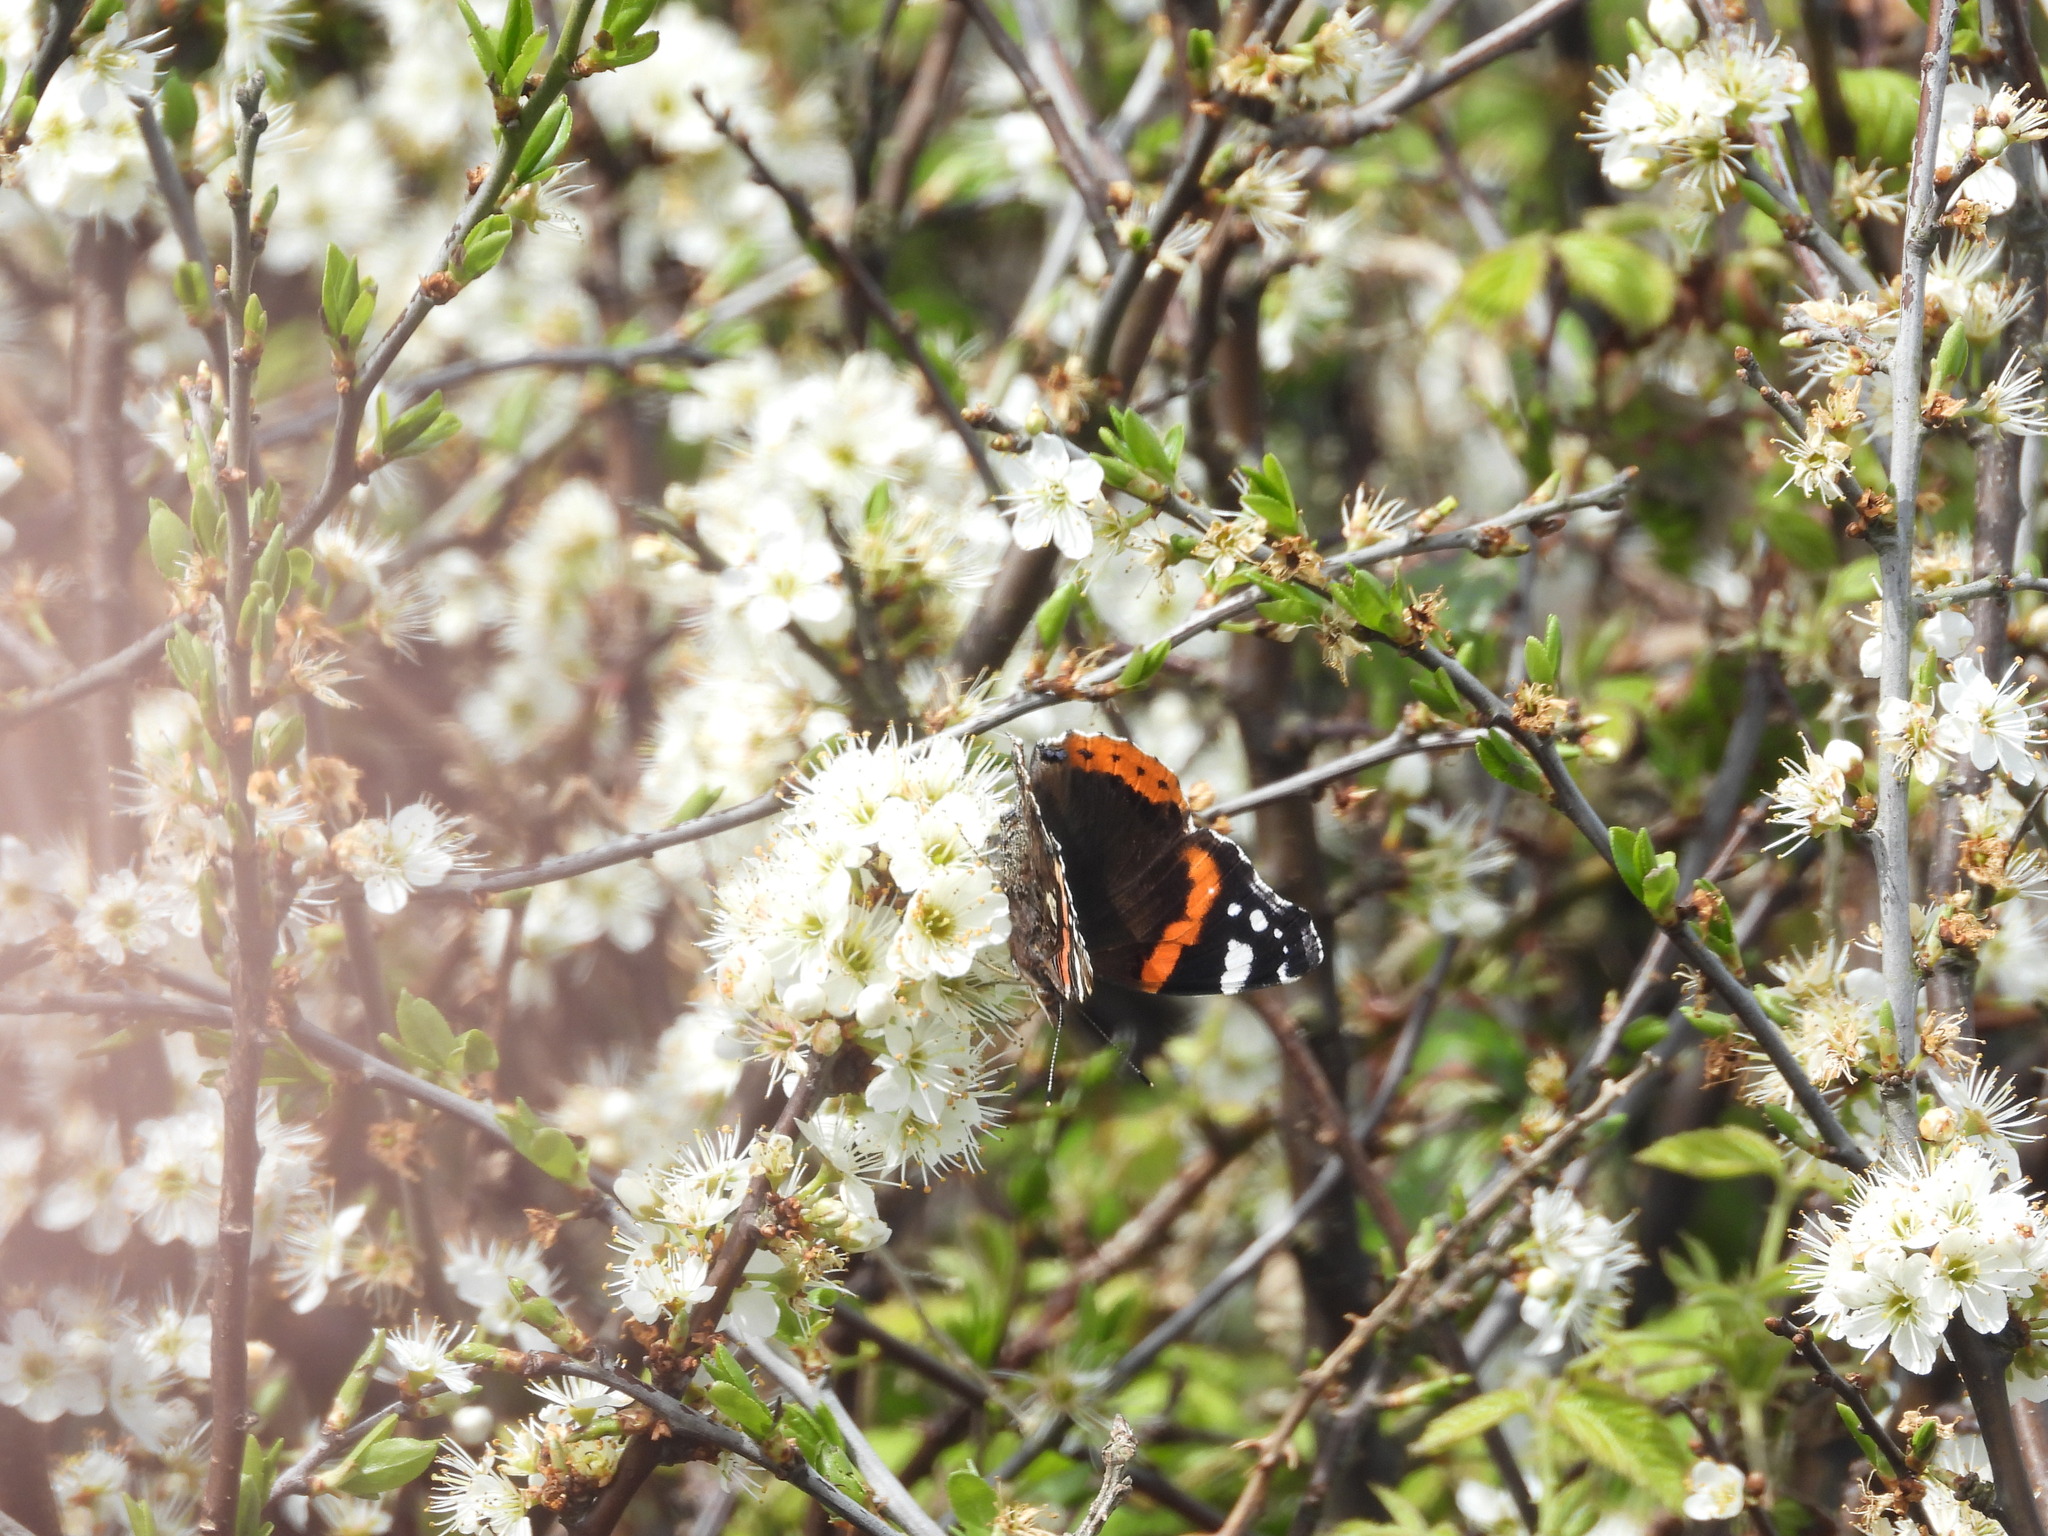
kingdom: Animalia
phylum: Arthropoda
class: Insecta
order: Lepidoptera
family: Nymphalidae
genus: Vanessa
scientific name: Vanessa atalanta
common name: Red admiral
